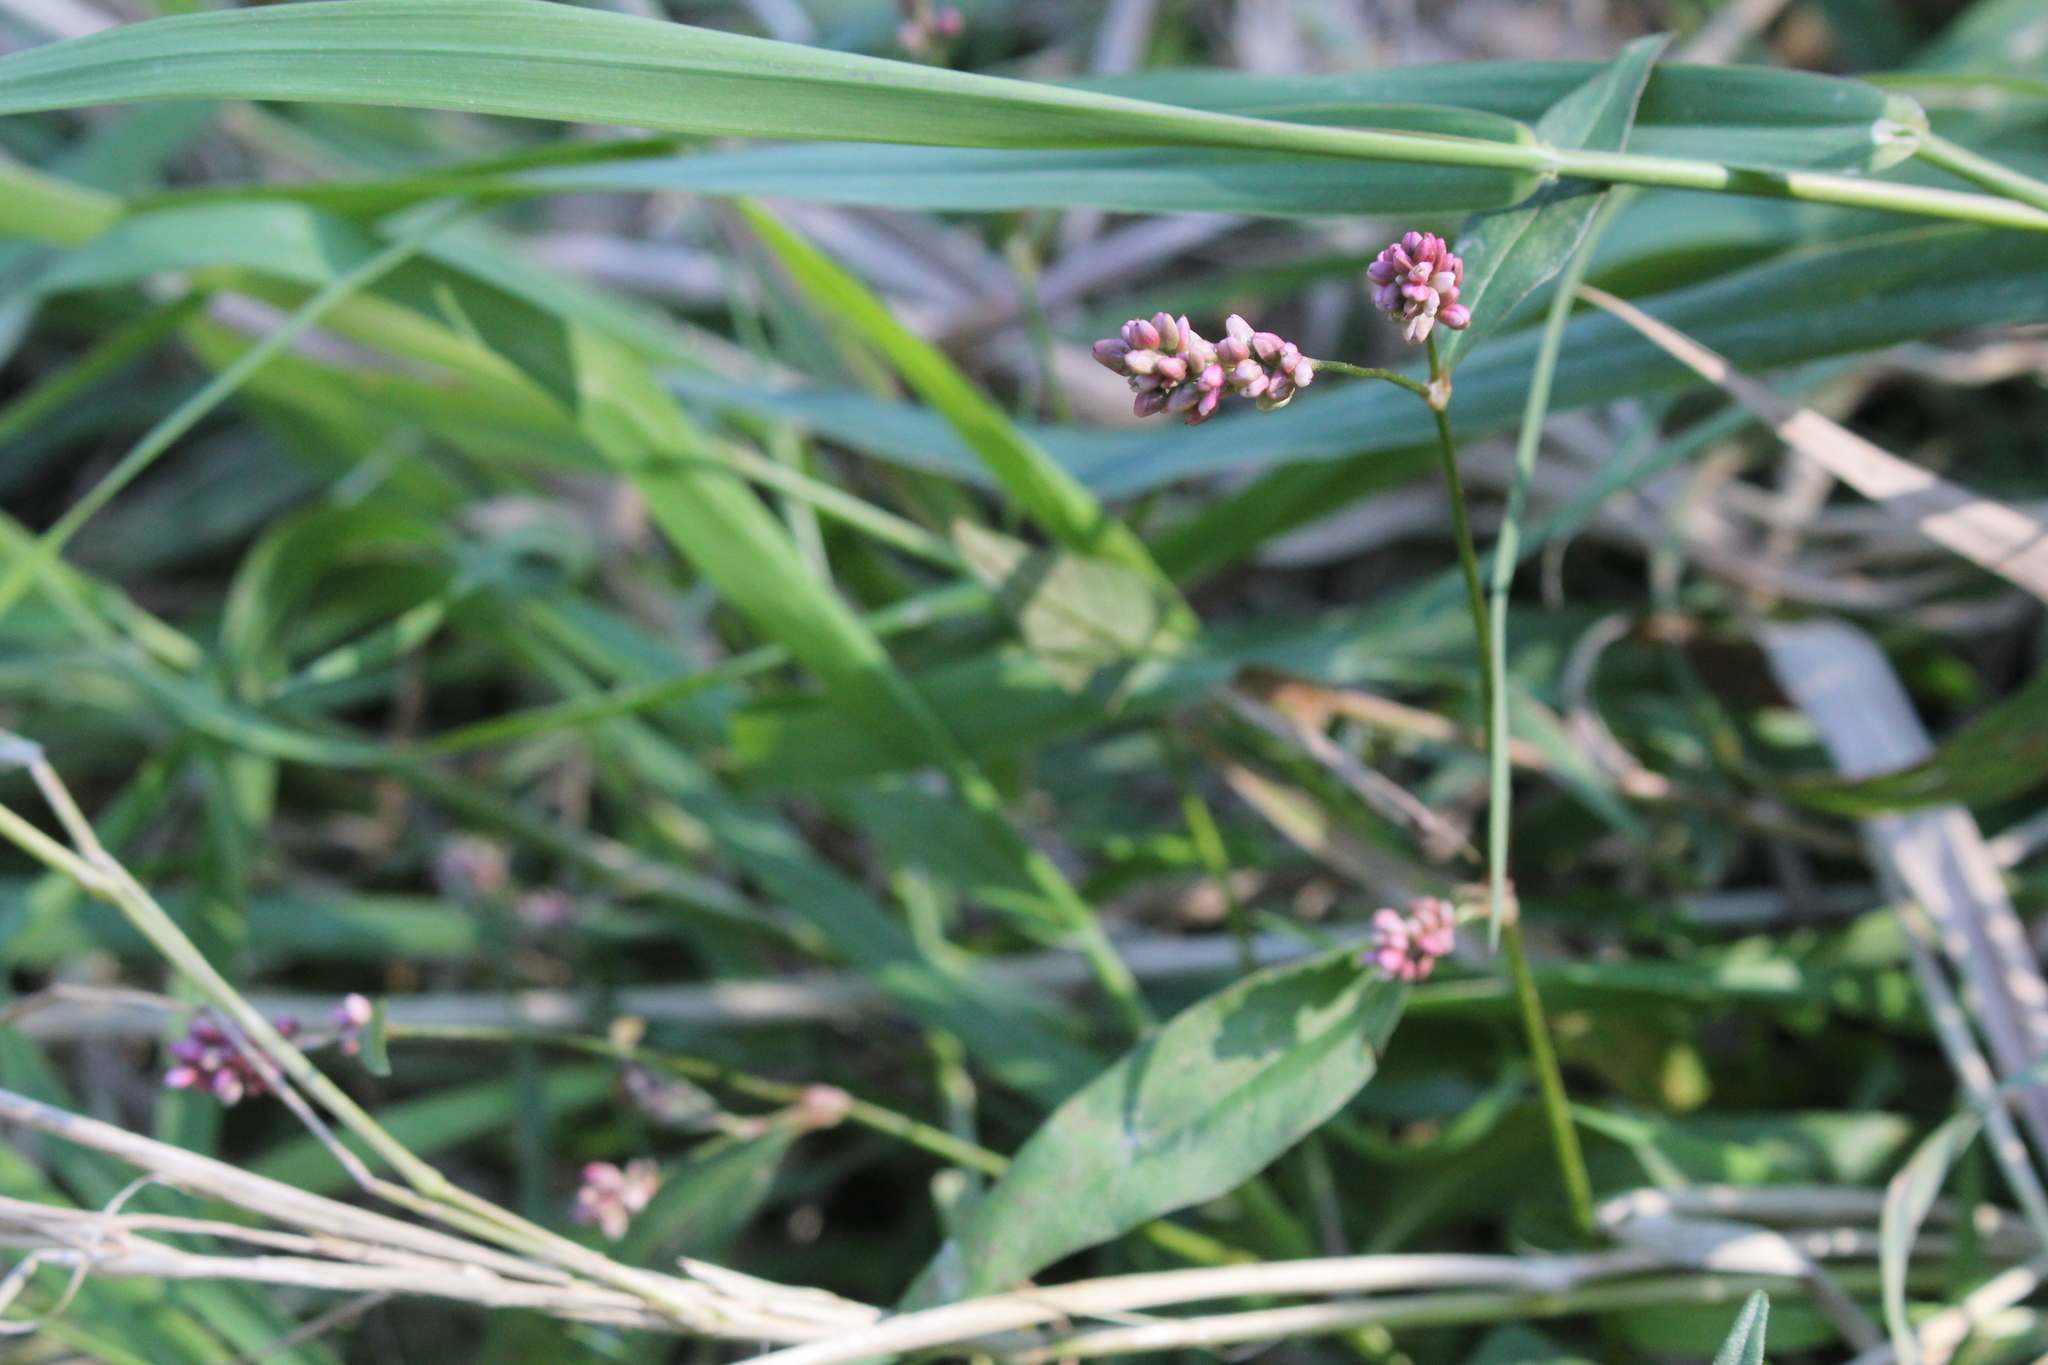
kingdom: Plantae
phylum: Tracheophyta
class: Magnoliopsida
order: Caryophyllales
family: Polygonaceae
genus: Persicaria
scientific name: Persicaria maculosa
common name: Redshank
